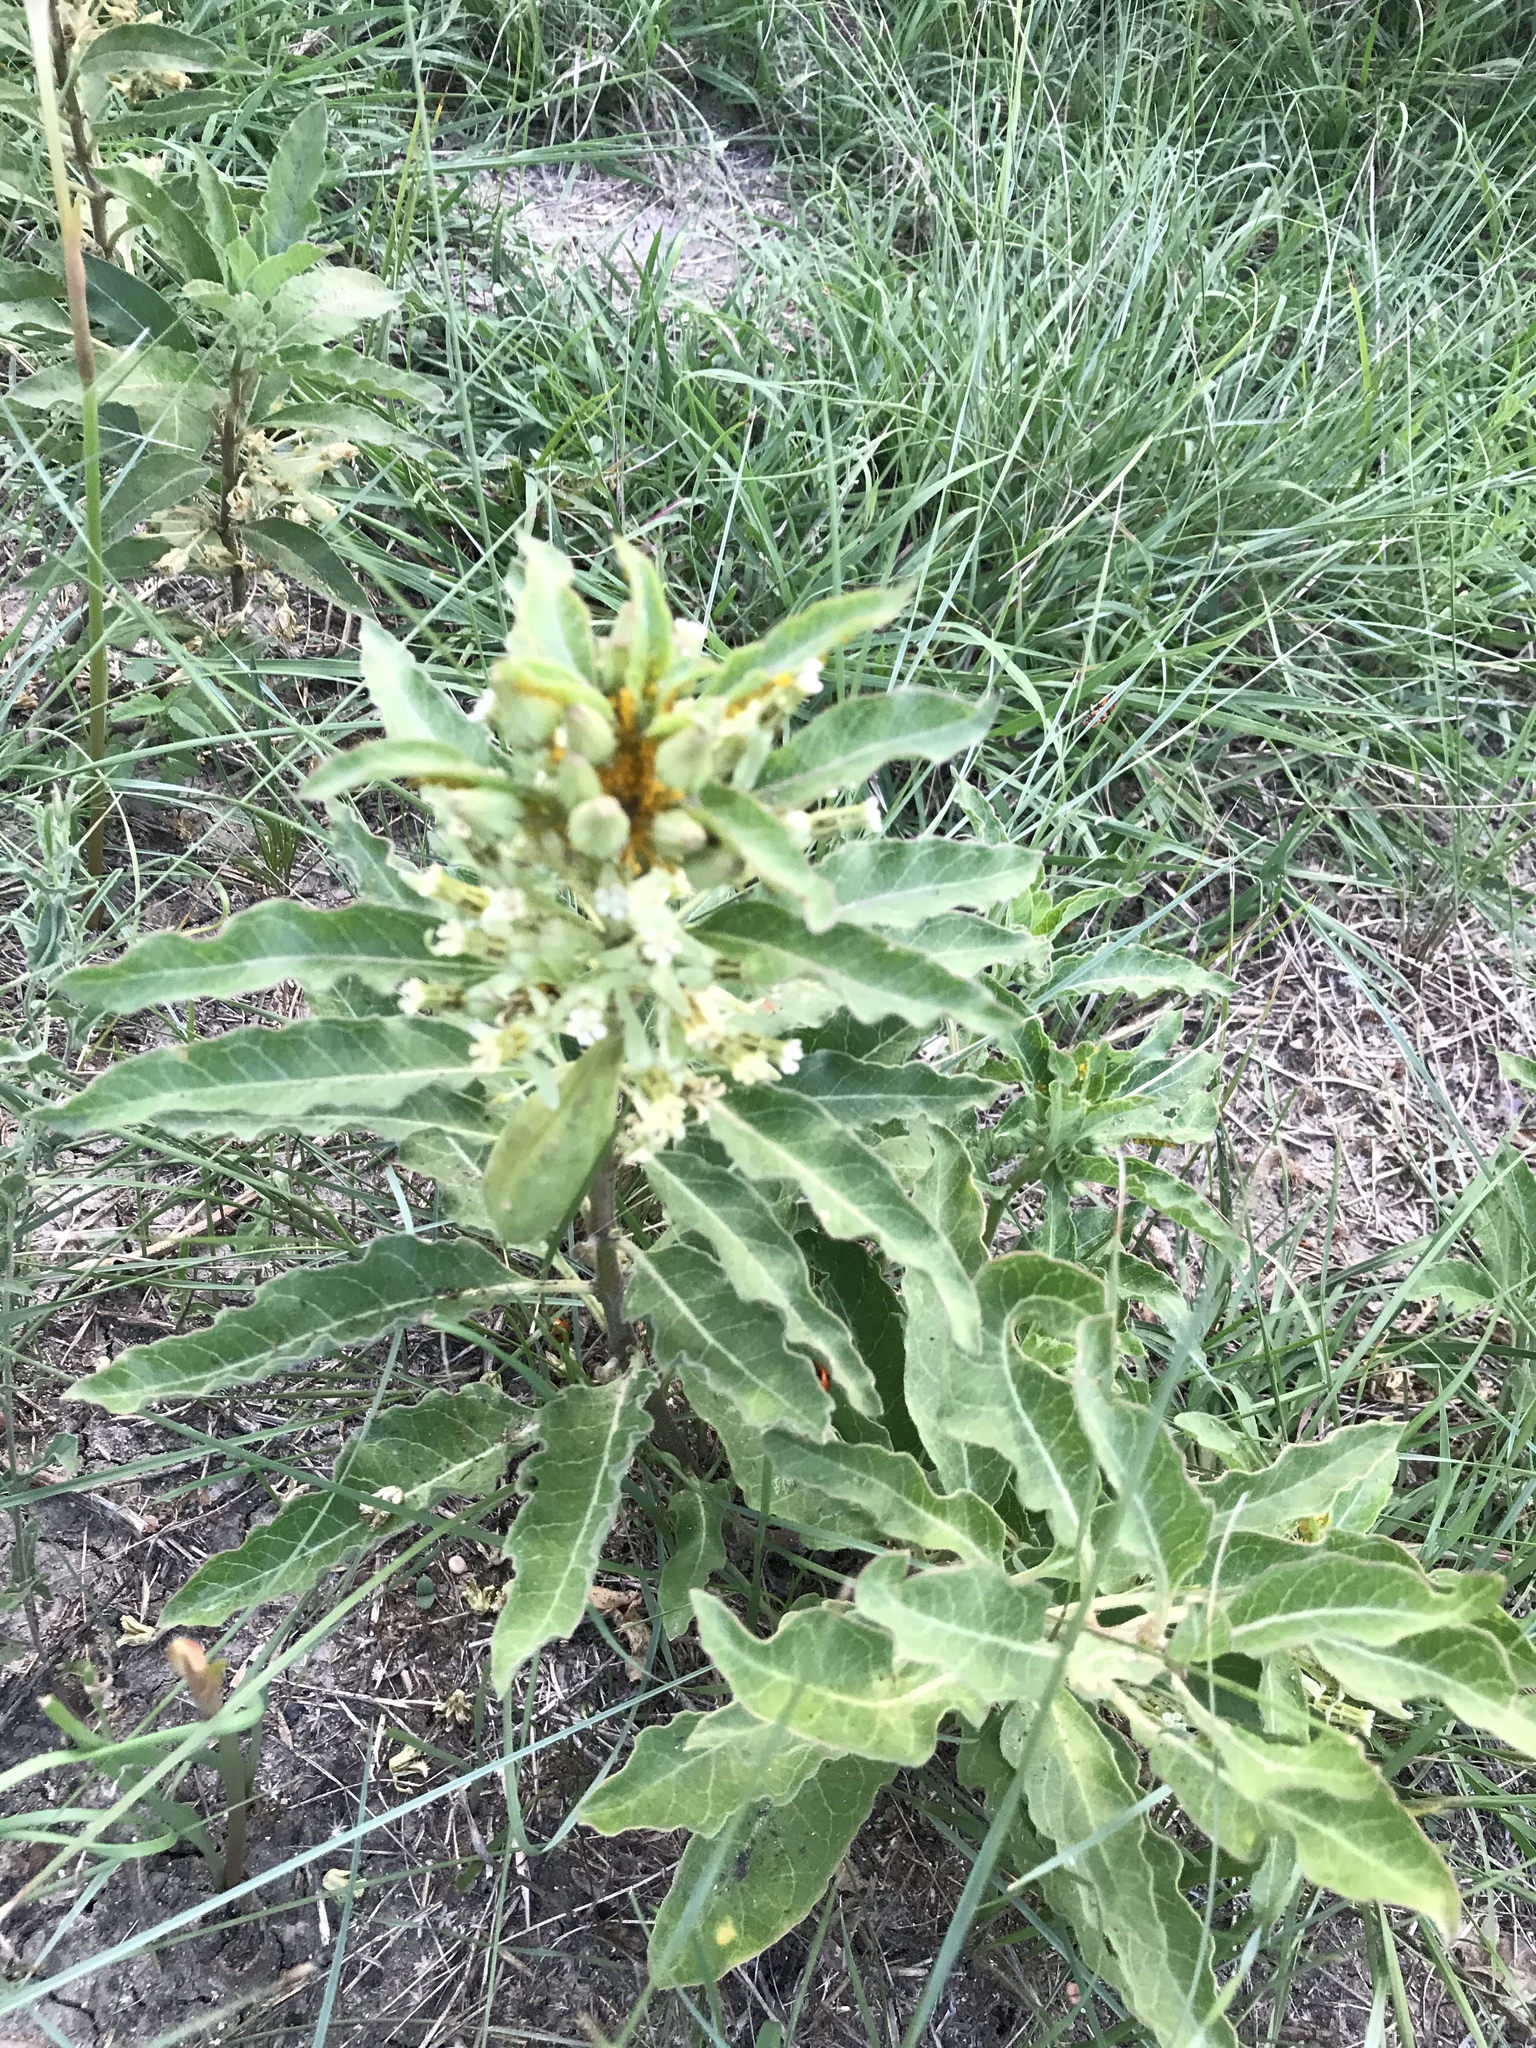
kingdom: Plantae
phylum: Tracheophyta
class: Magnoliopsida
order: Gentianales
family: Apocynaceae
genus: Asclepias
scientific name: Asclepias oenotheroides
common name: Zizotes milkweed
